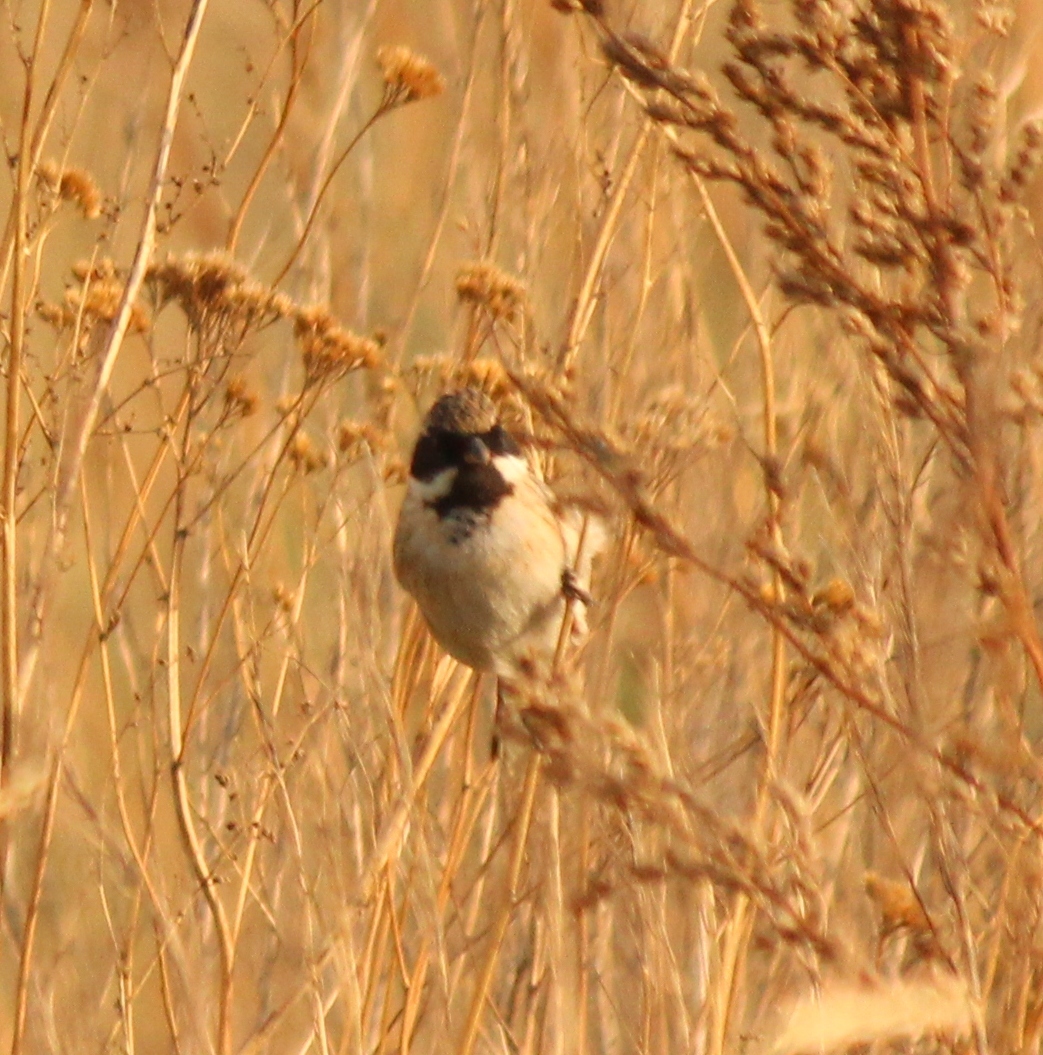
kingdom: Animalia
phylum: Chordata
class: Aves
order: Passeriformes
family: Emberizidae
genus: Emberiza
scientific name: Emberiza pallasi
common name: Pallas's reed bunting
